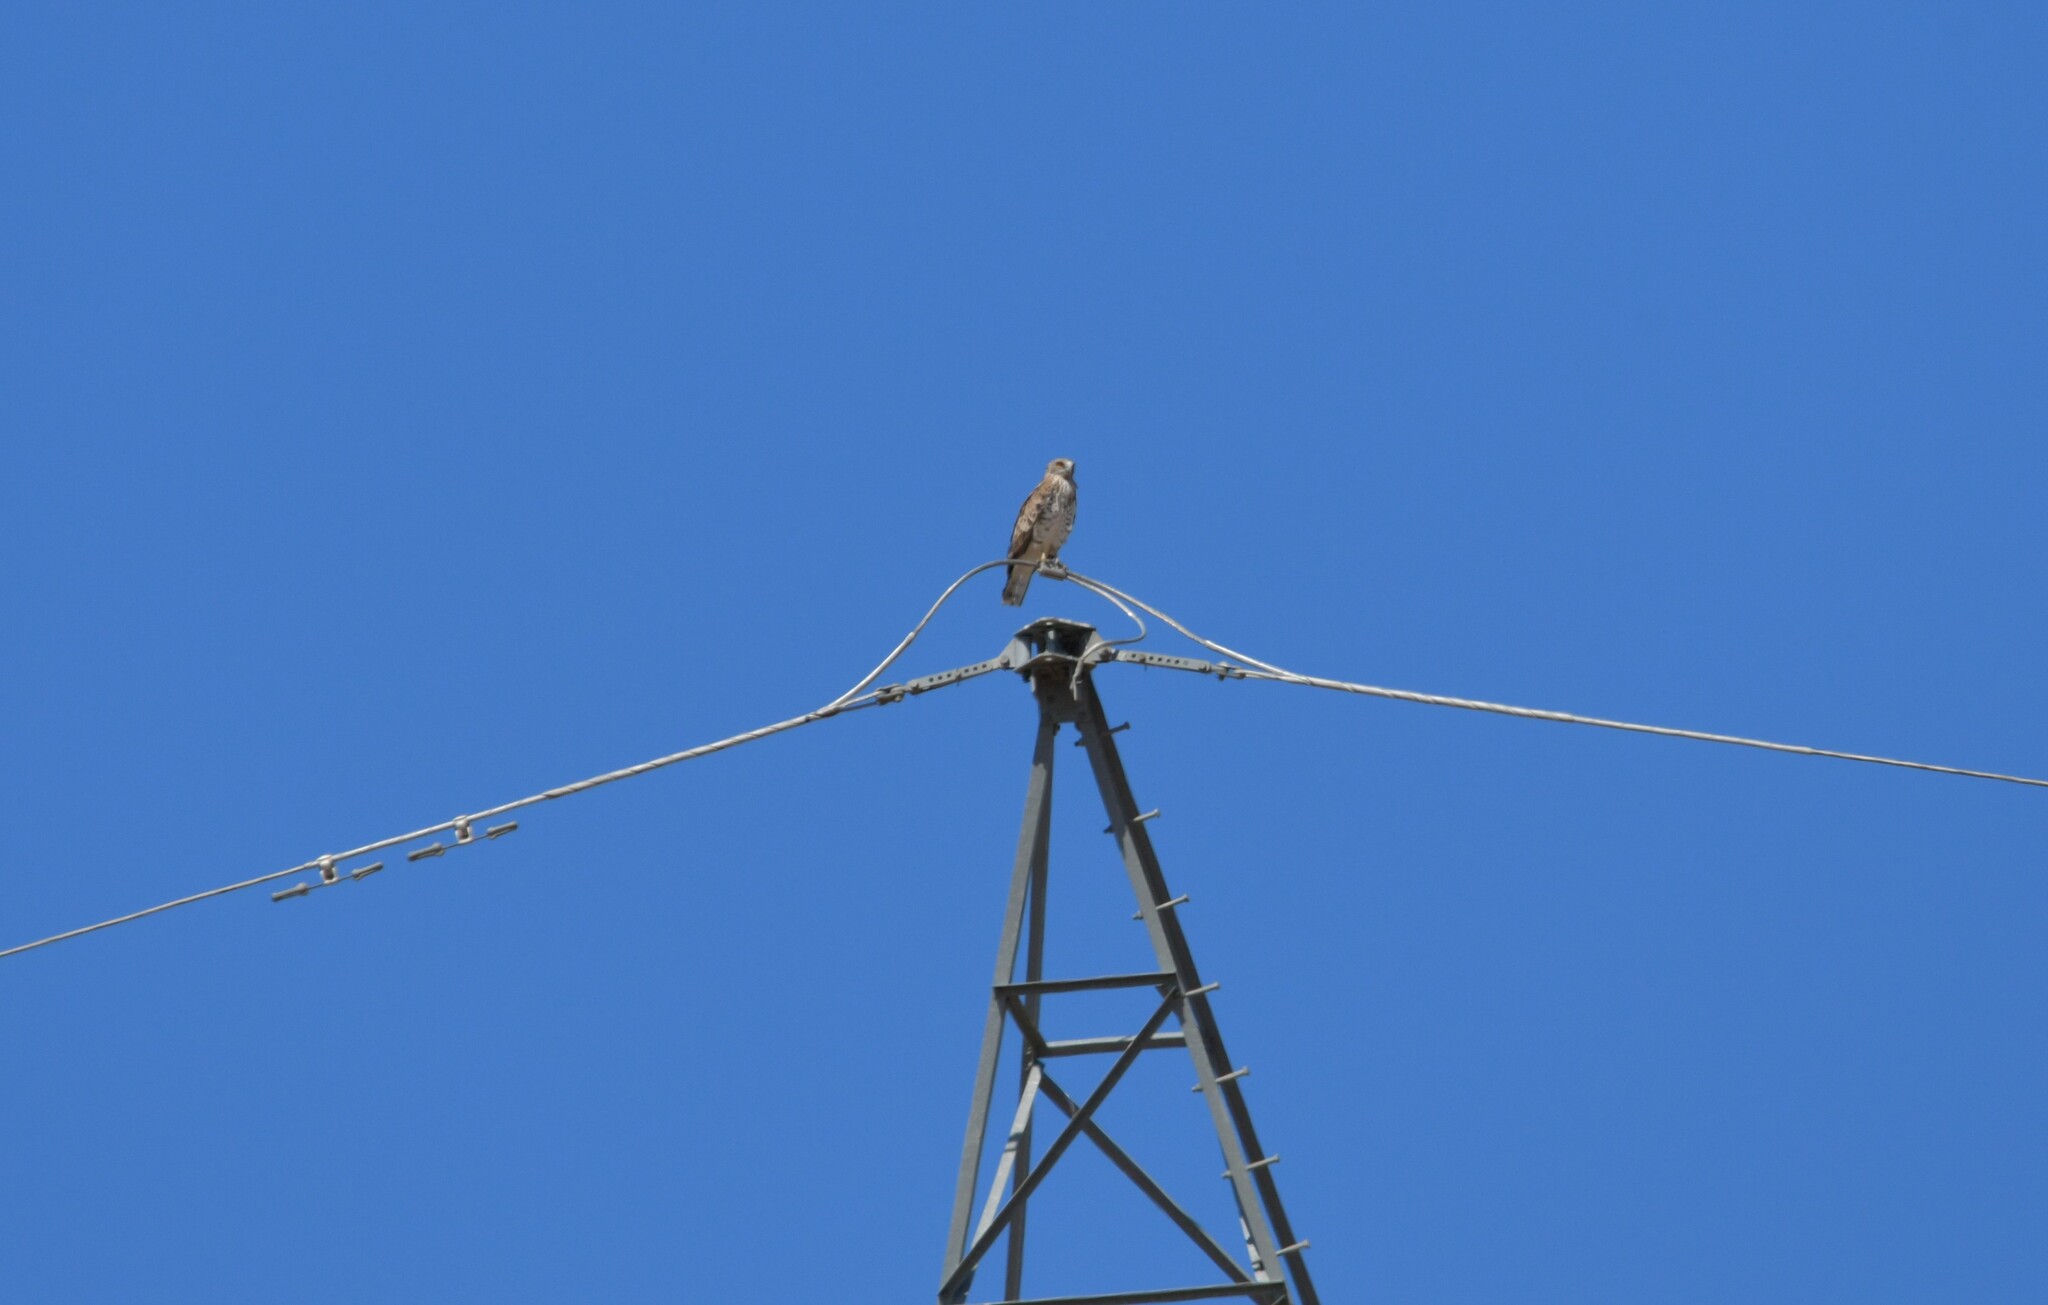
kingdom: Animalia
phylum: Chordata
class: Aves
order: Accipitriformes
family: Accipitridae
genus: Circaetus
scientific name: Circaetus gallicus
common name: Short-toed snake eagle
